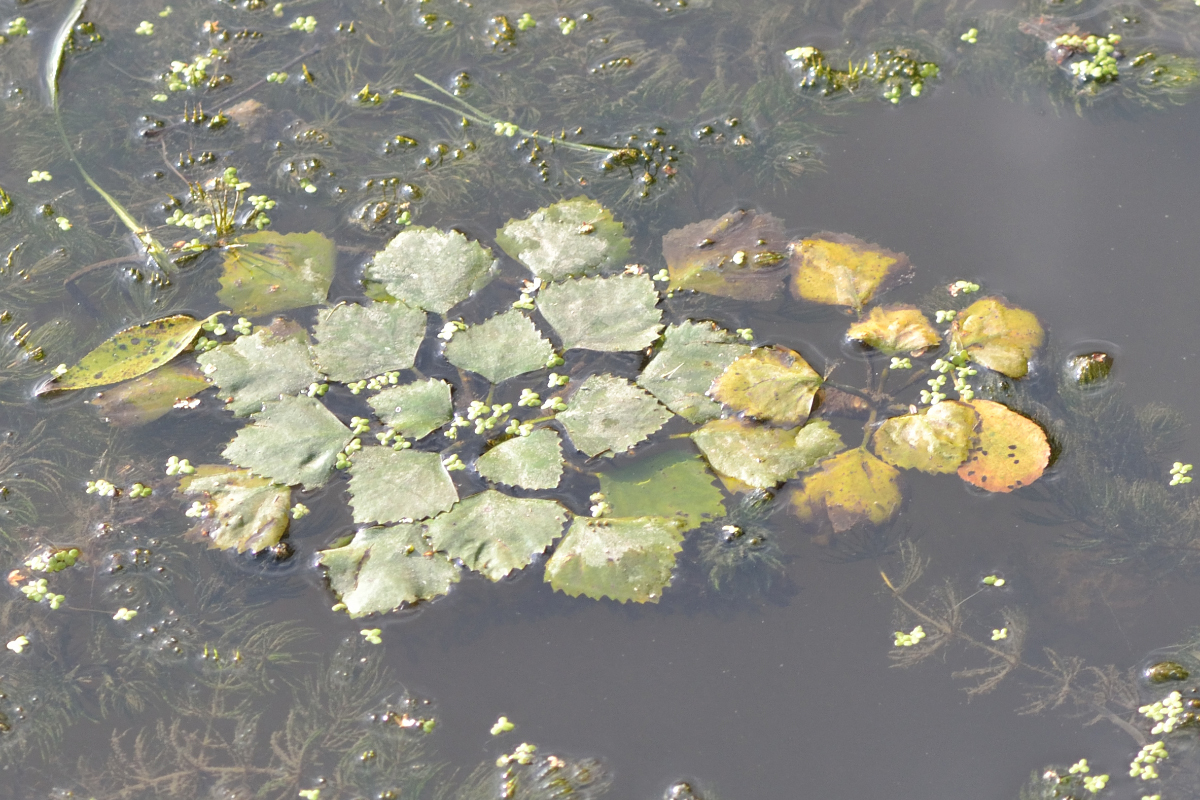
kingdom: Plantae
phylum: Tracheophyta
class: Magnoliopsida
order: Myrtales
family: Lythraceae
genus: Trapa
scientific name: Trapa natans
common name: Water chestnut
